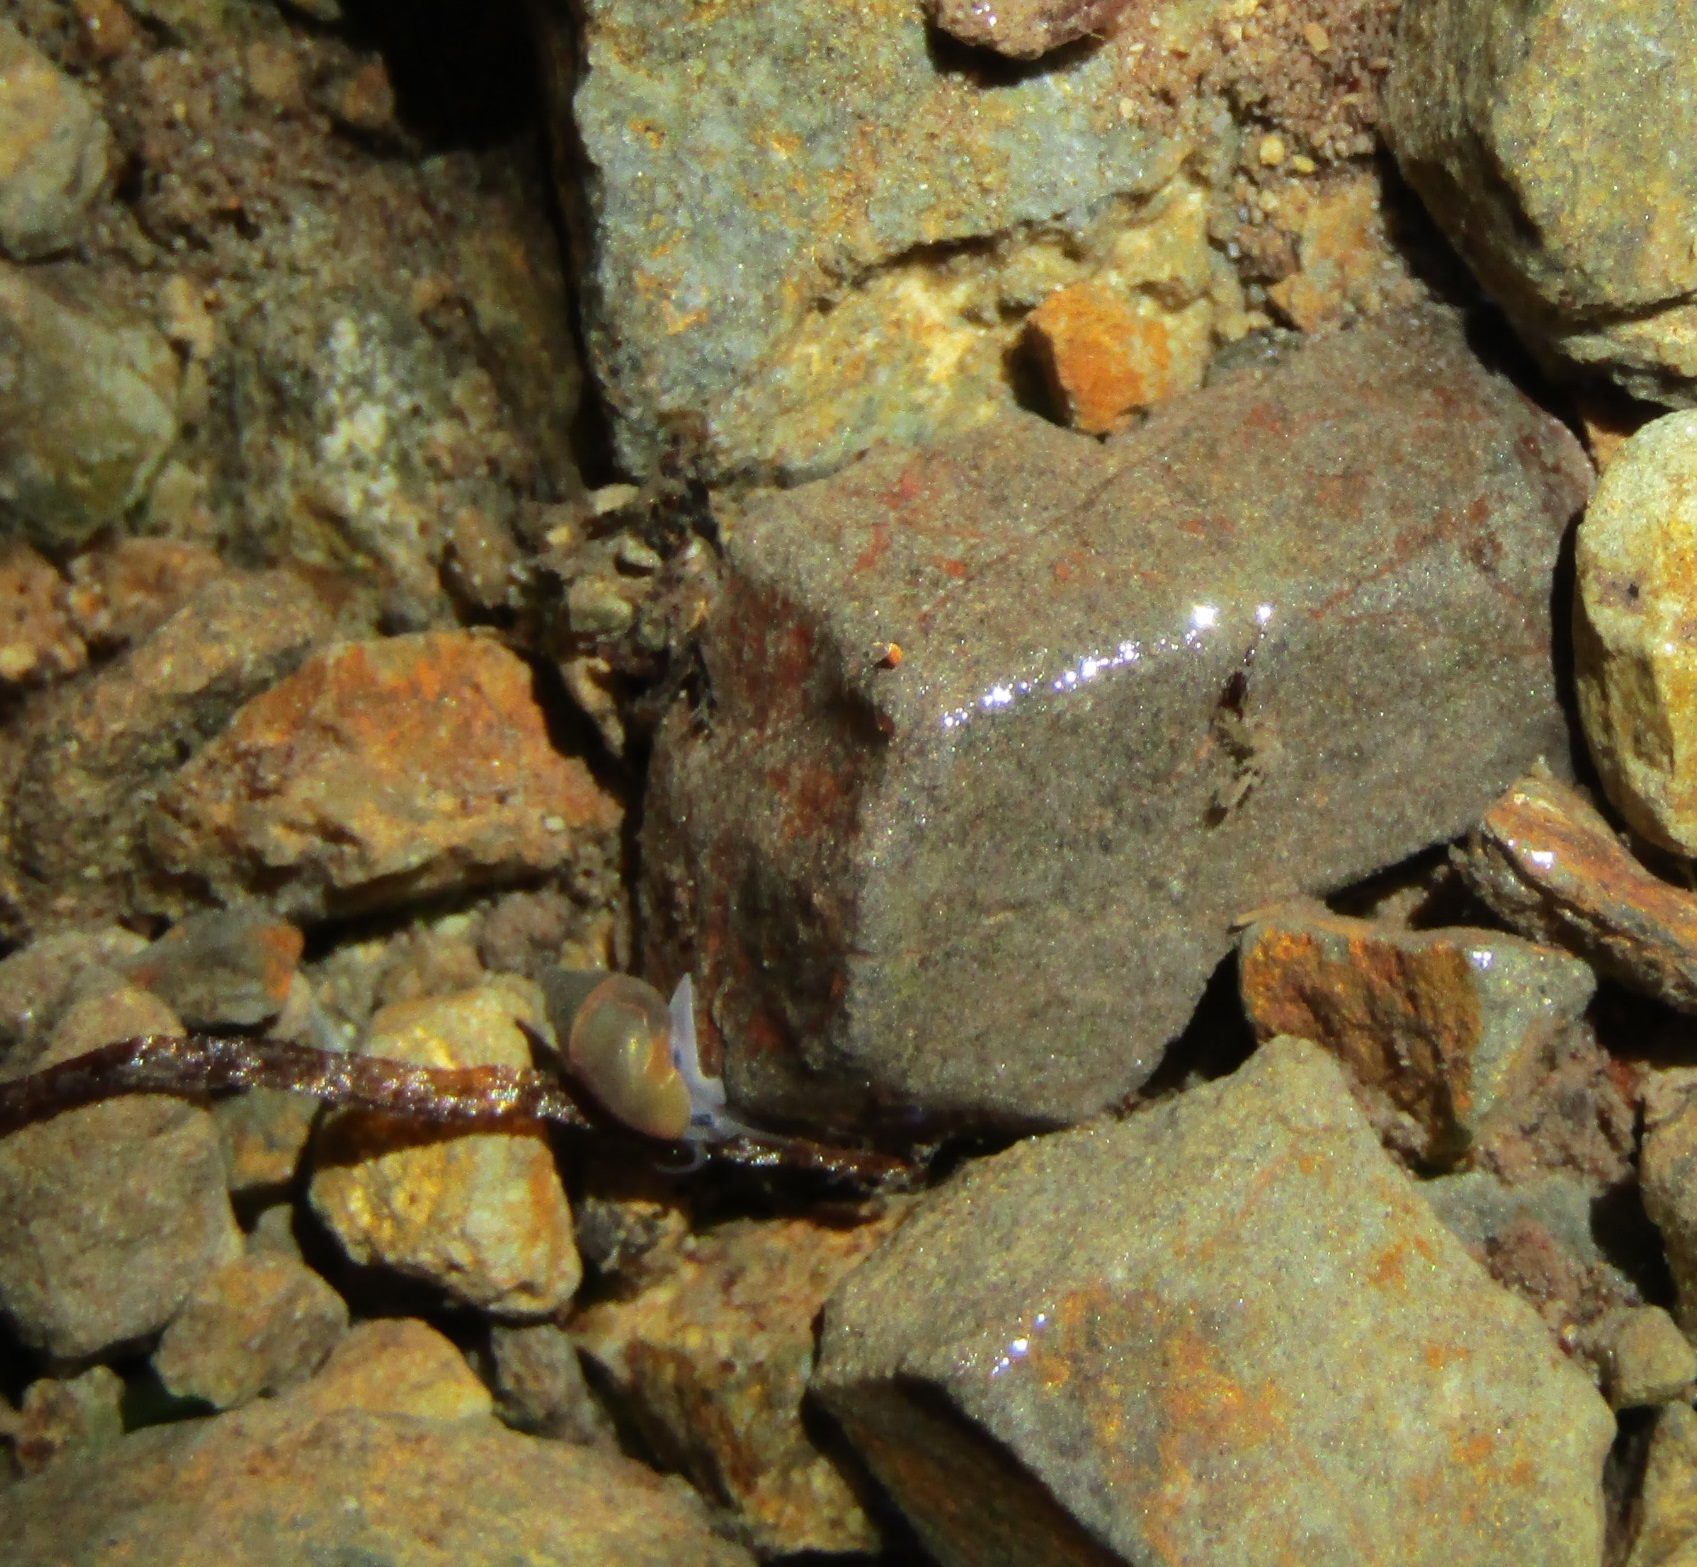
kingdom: Animalia
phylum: Mollusca
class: Gastropoda
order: Littorinimorpha
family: Tateidae
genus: Potamopyrgus
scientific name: Potamopyrgus antipodarum
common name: Jenkins' spire snail
